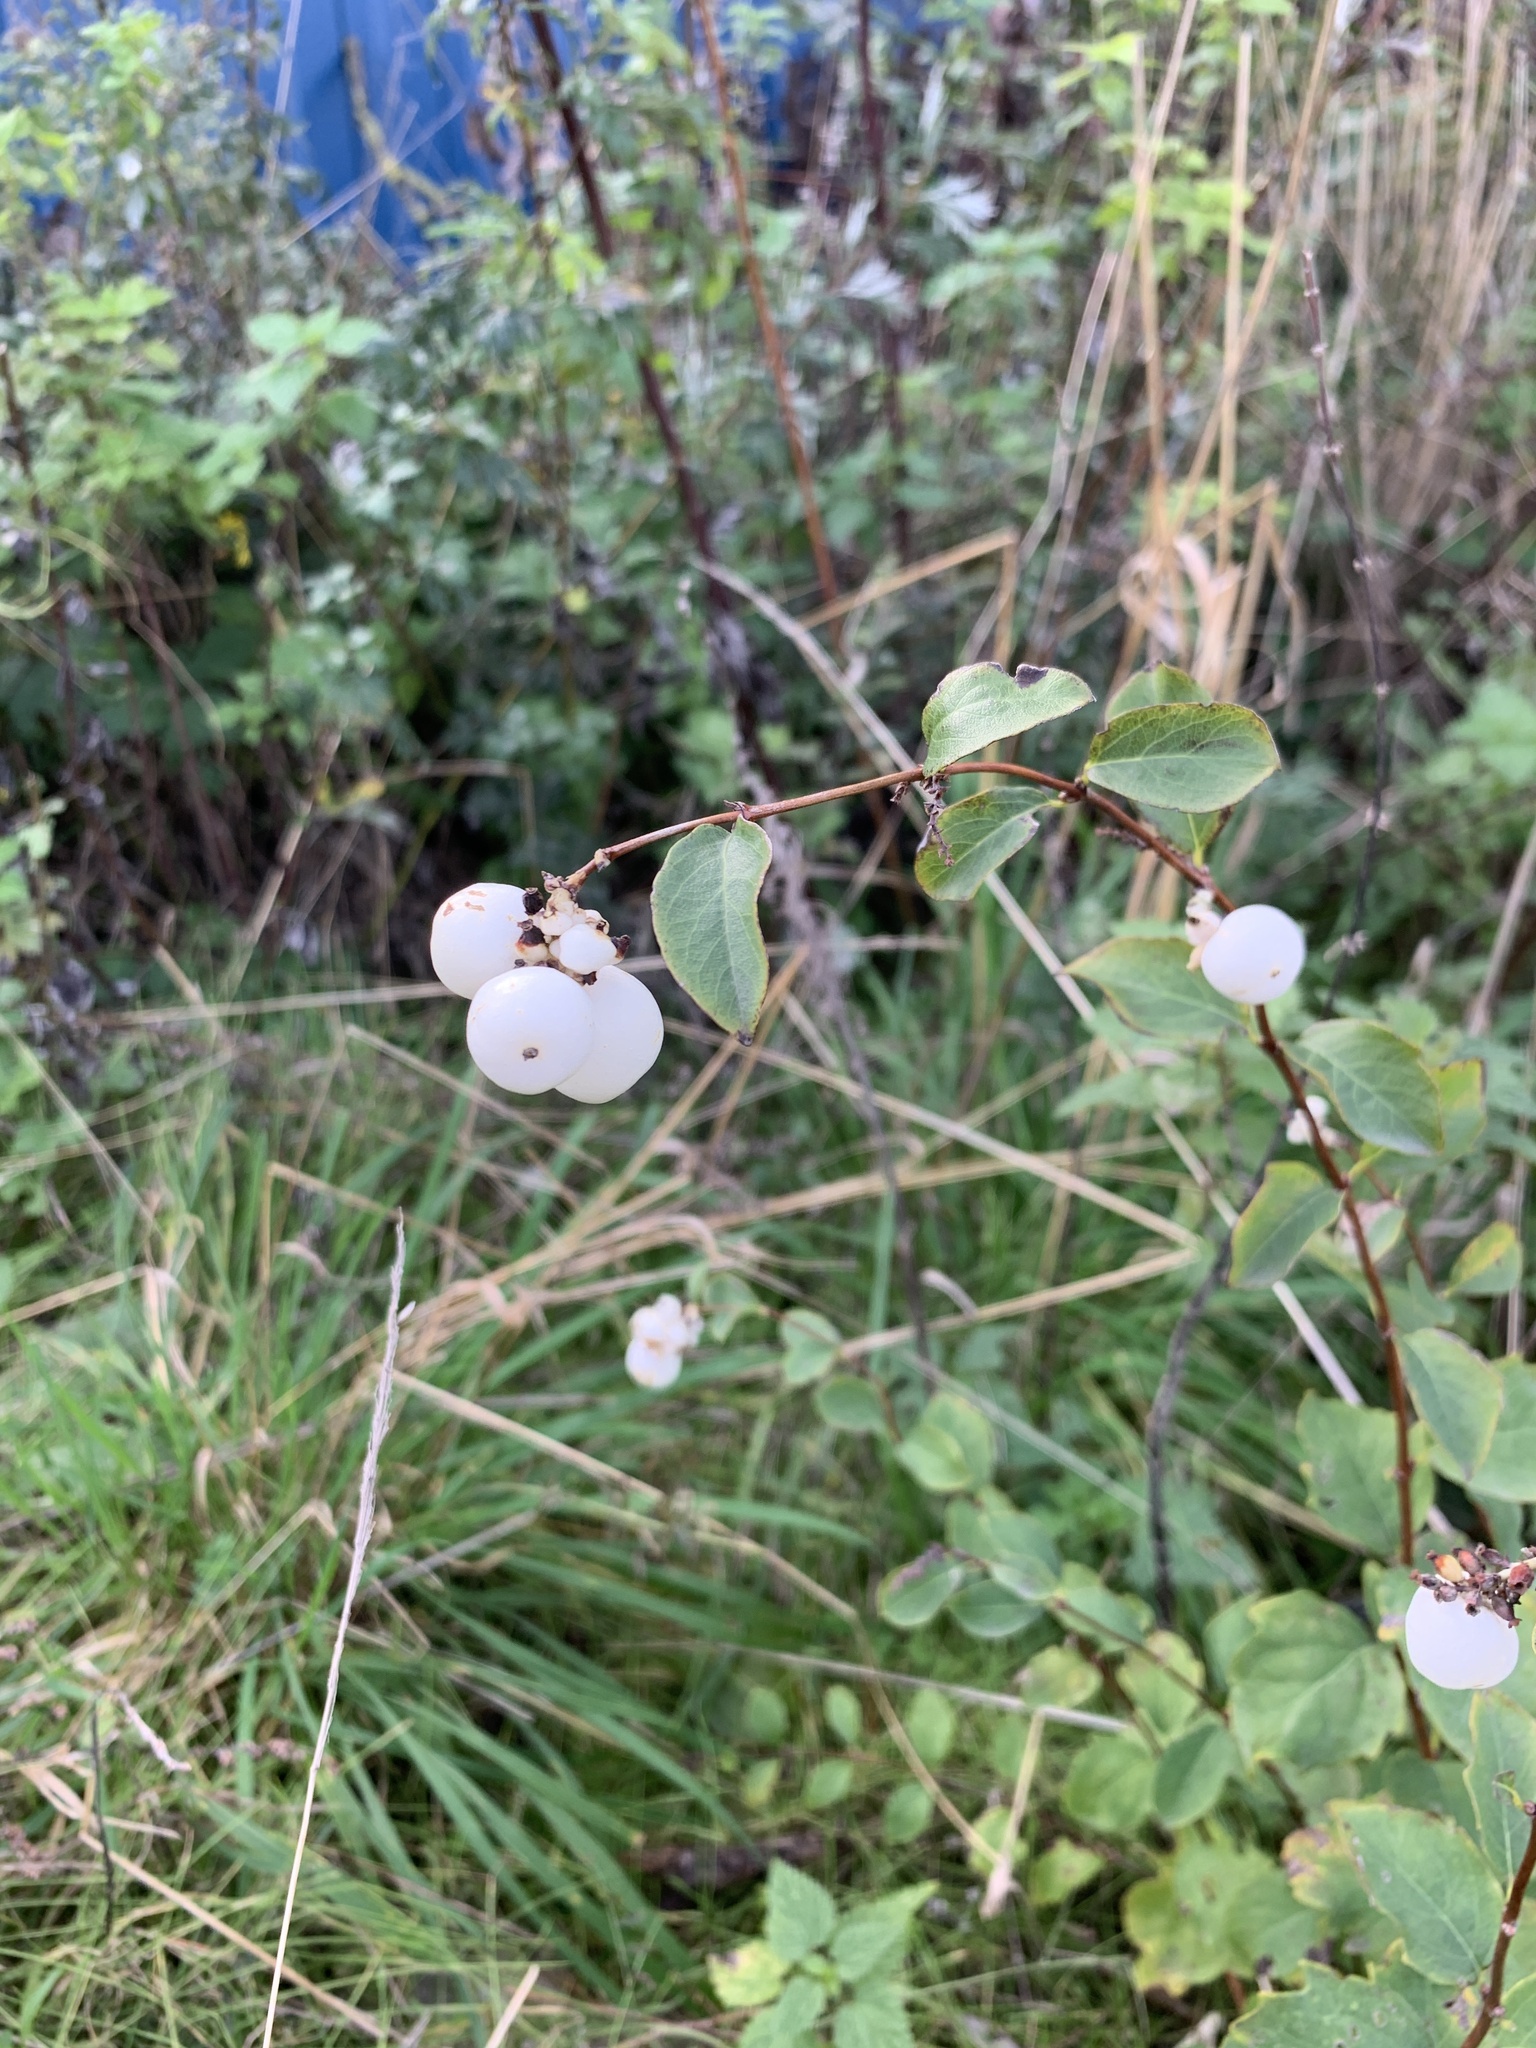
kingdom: Plantae
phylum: Tracheophyta
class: Magnoliopsida
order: Dipsacales
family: Caprifoliaceae
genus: Symphoricarpos
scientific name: Symphoricarpos albus
